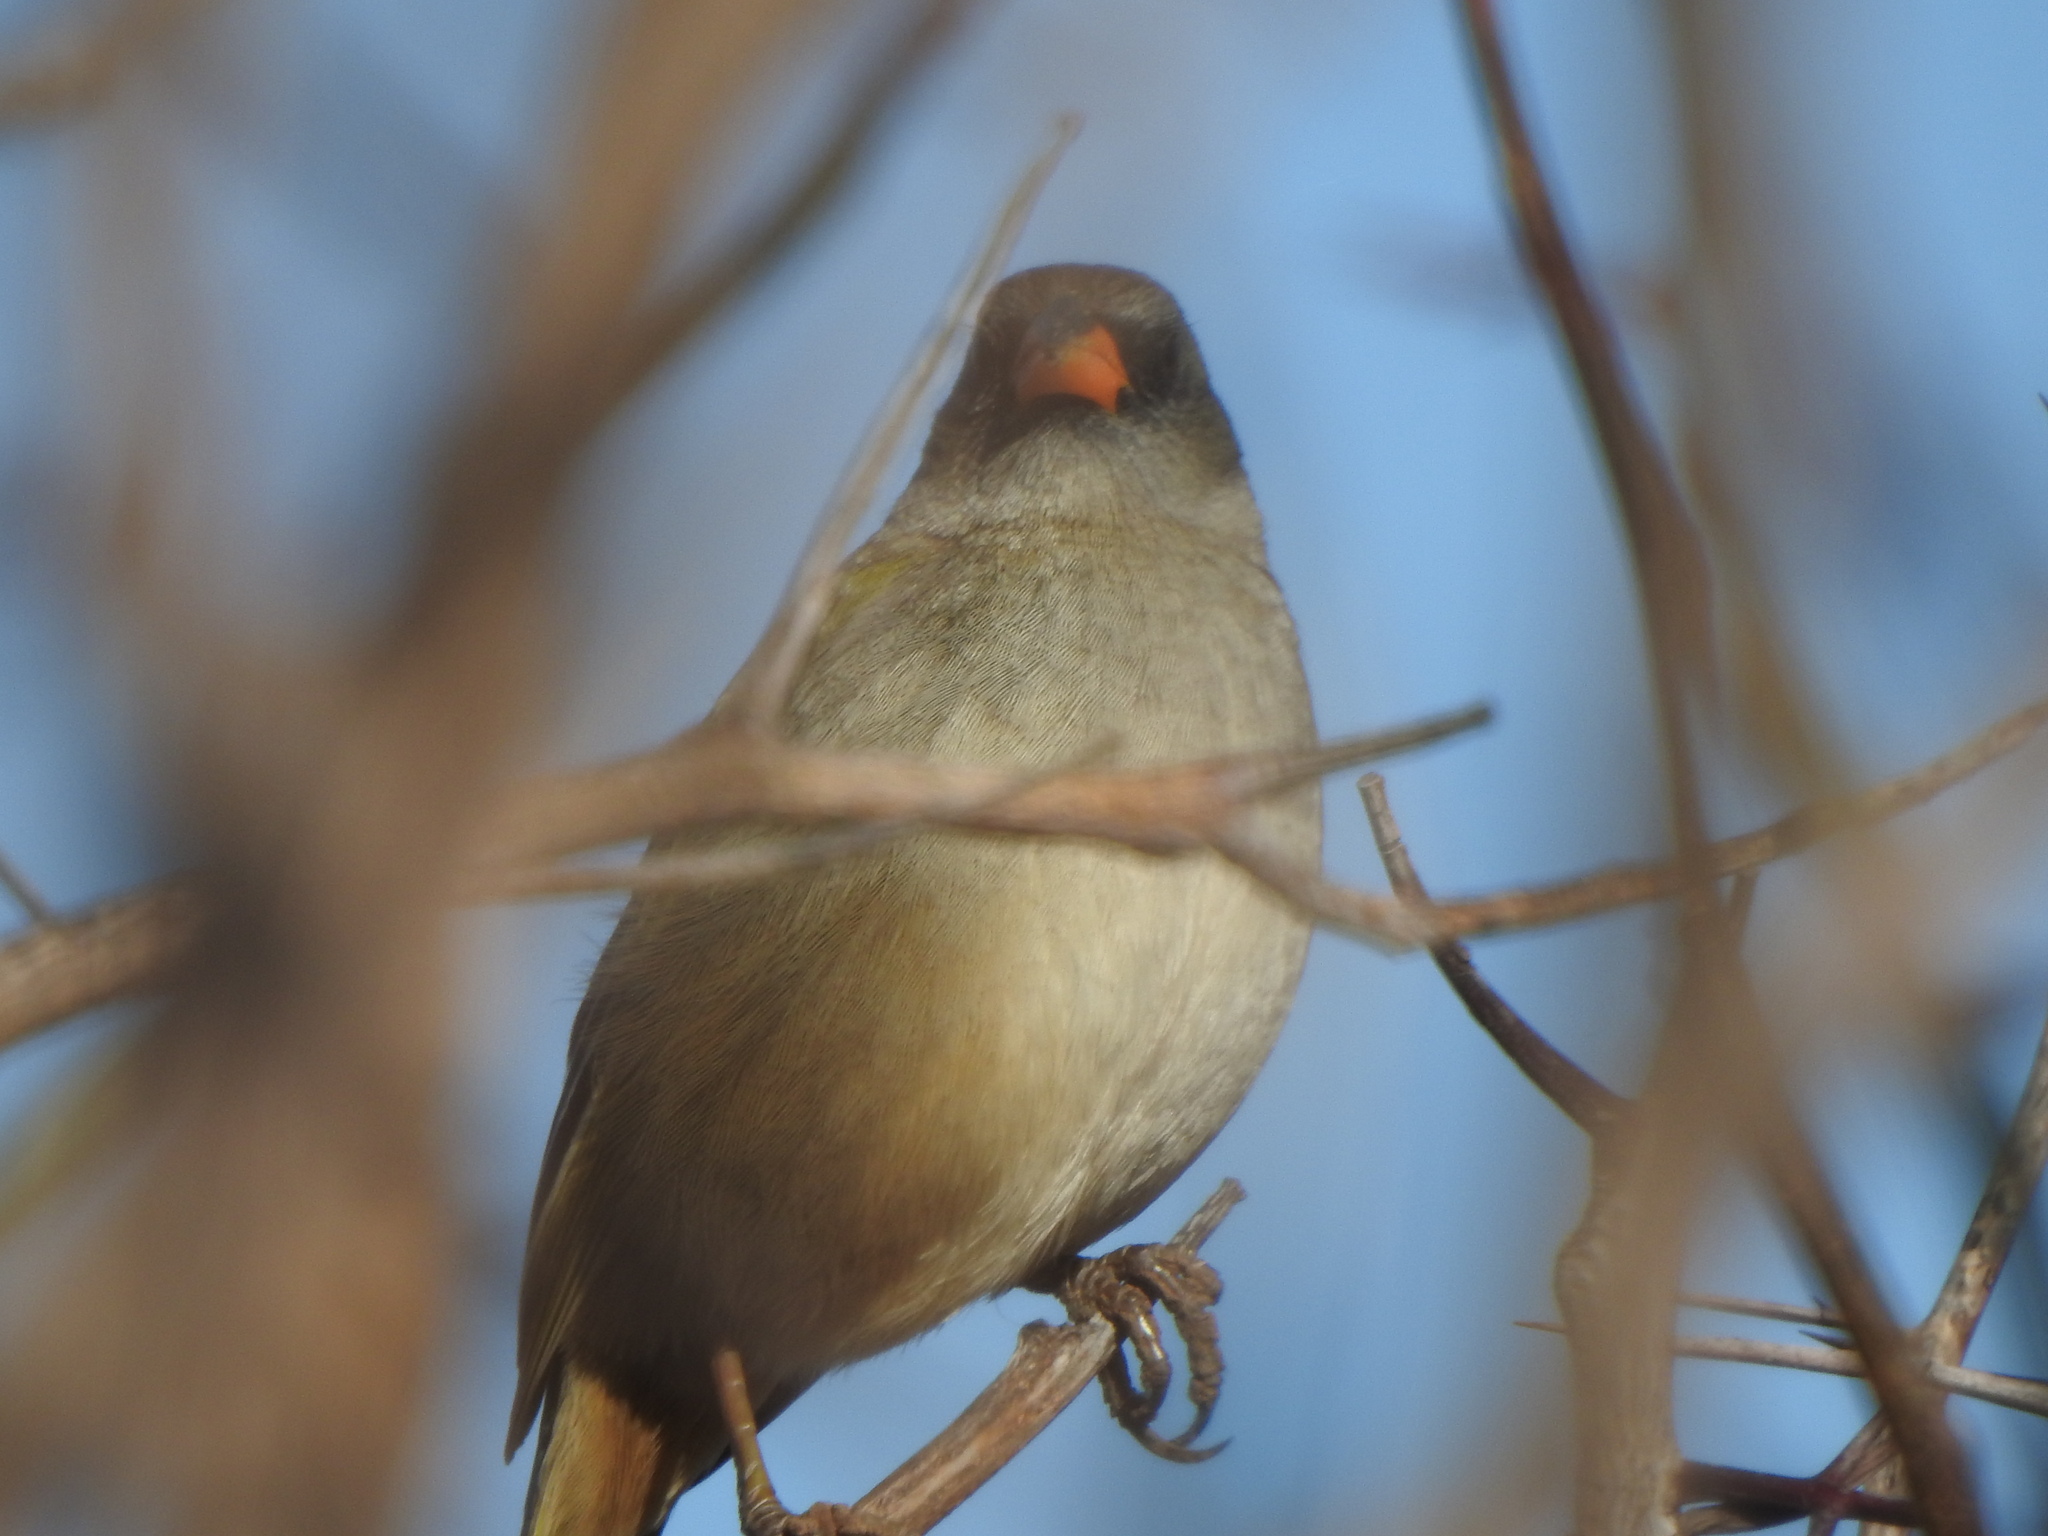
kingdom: Animalia
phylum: Chordata
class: Aves
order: Passeriformes
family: Thraupidae
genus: Embernagra
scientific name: Embernagra platensis
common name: Pampa finch
